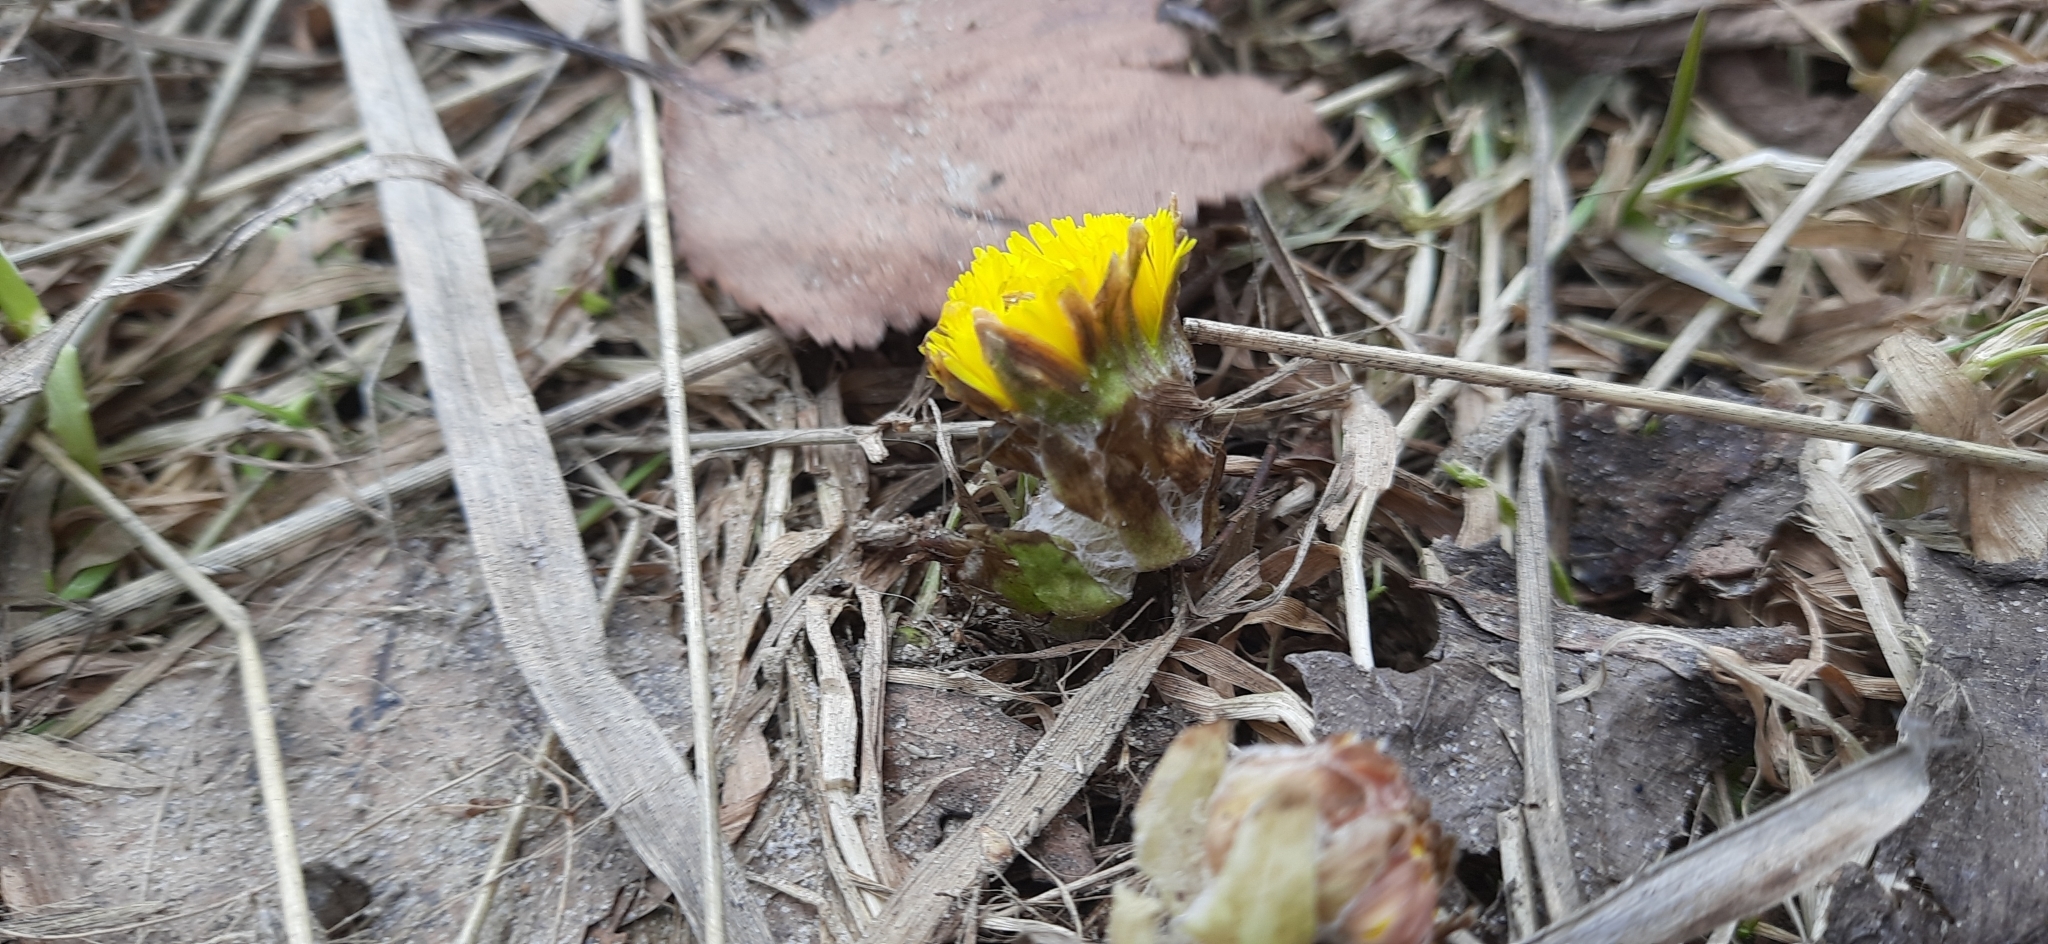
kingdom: Plantae
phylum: Tracheophyta
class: Magnoliopsida
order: Asterales
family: Asteraceae
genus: Tussilago
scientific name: Tussilago farfara
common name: Coltsfoot
